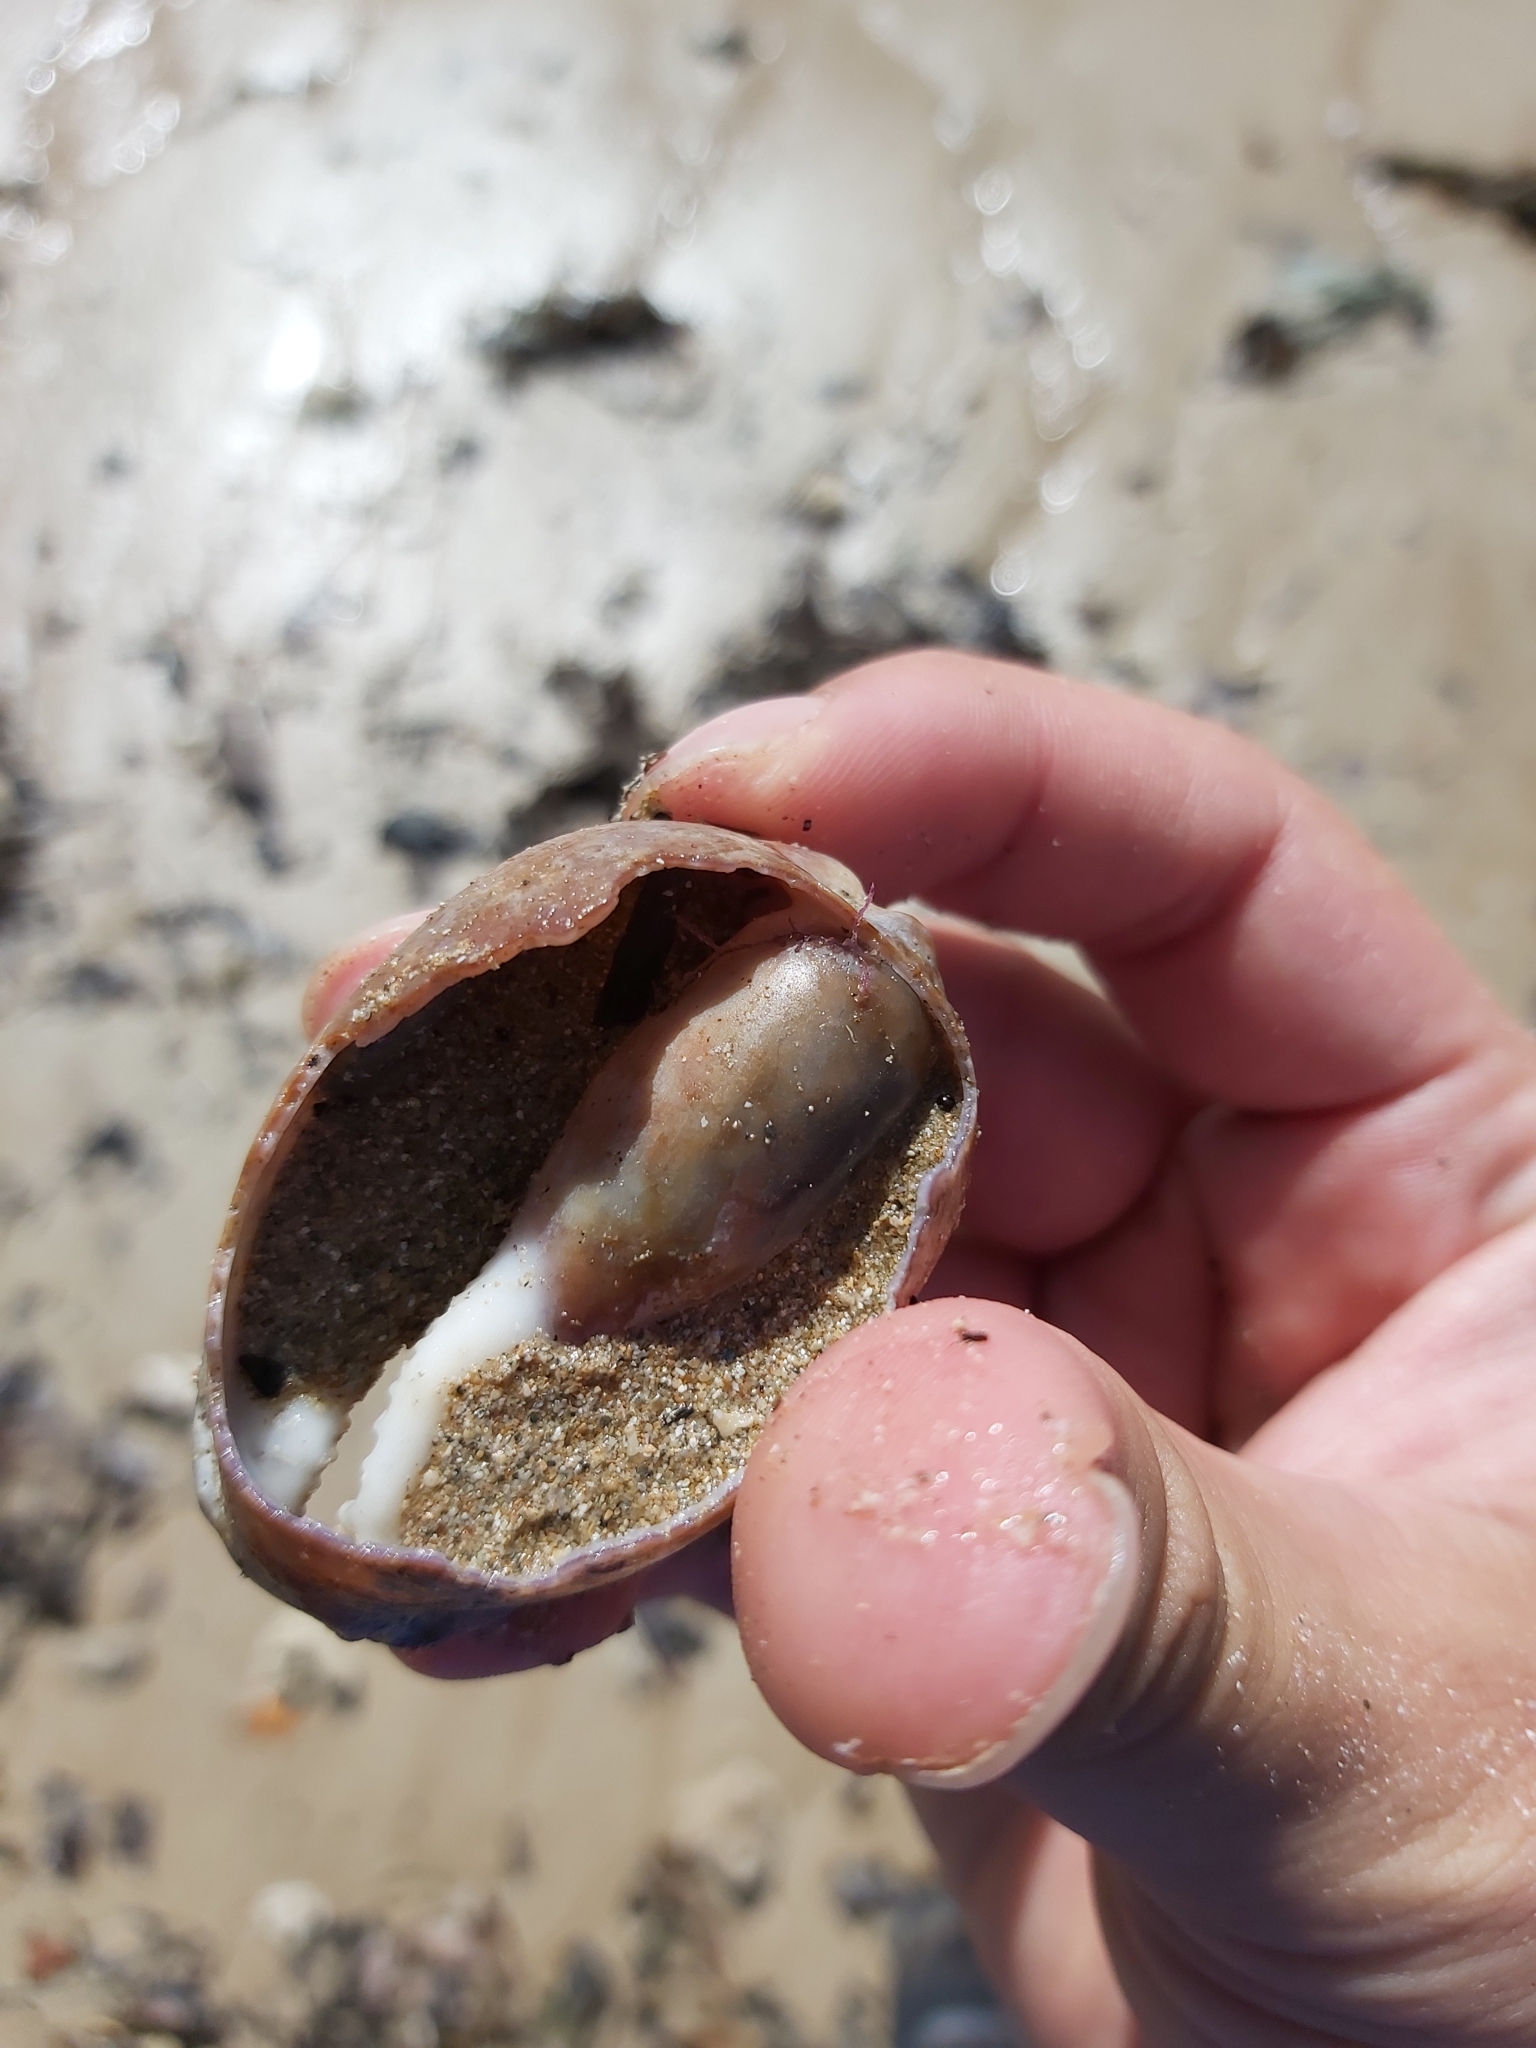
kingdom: Animalia
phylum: Mollusca
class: Gastropoda
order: Littorinimorpha
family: Cypraeidae
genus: Mauritia
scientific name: Mauritia arabica
